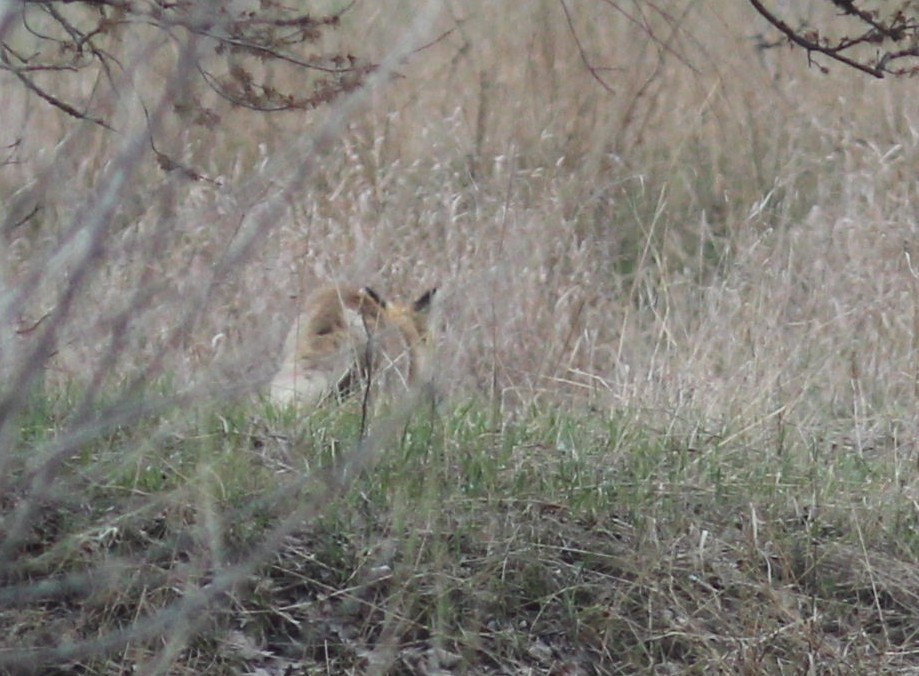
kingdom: Animalia
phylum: Chordata
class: Mammalia
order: Carnivora
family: Canidae
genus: Vulpes
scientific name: Vulpes vulpes
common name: Red fox
